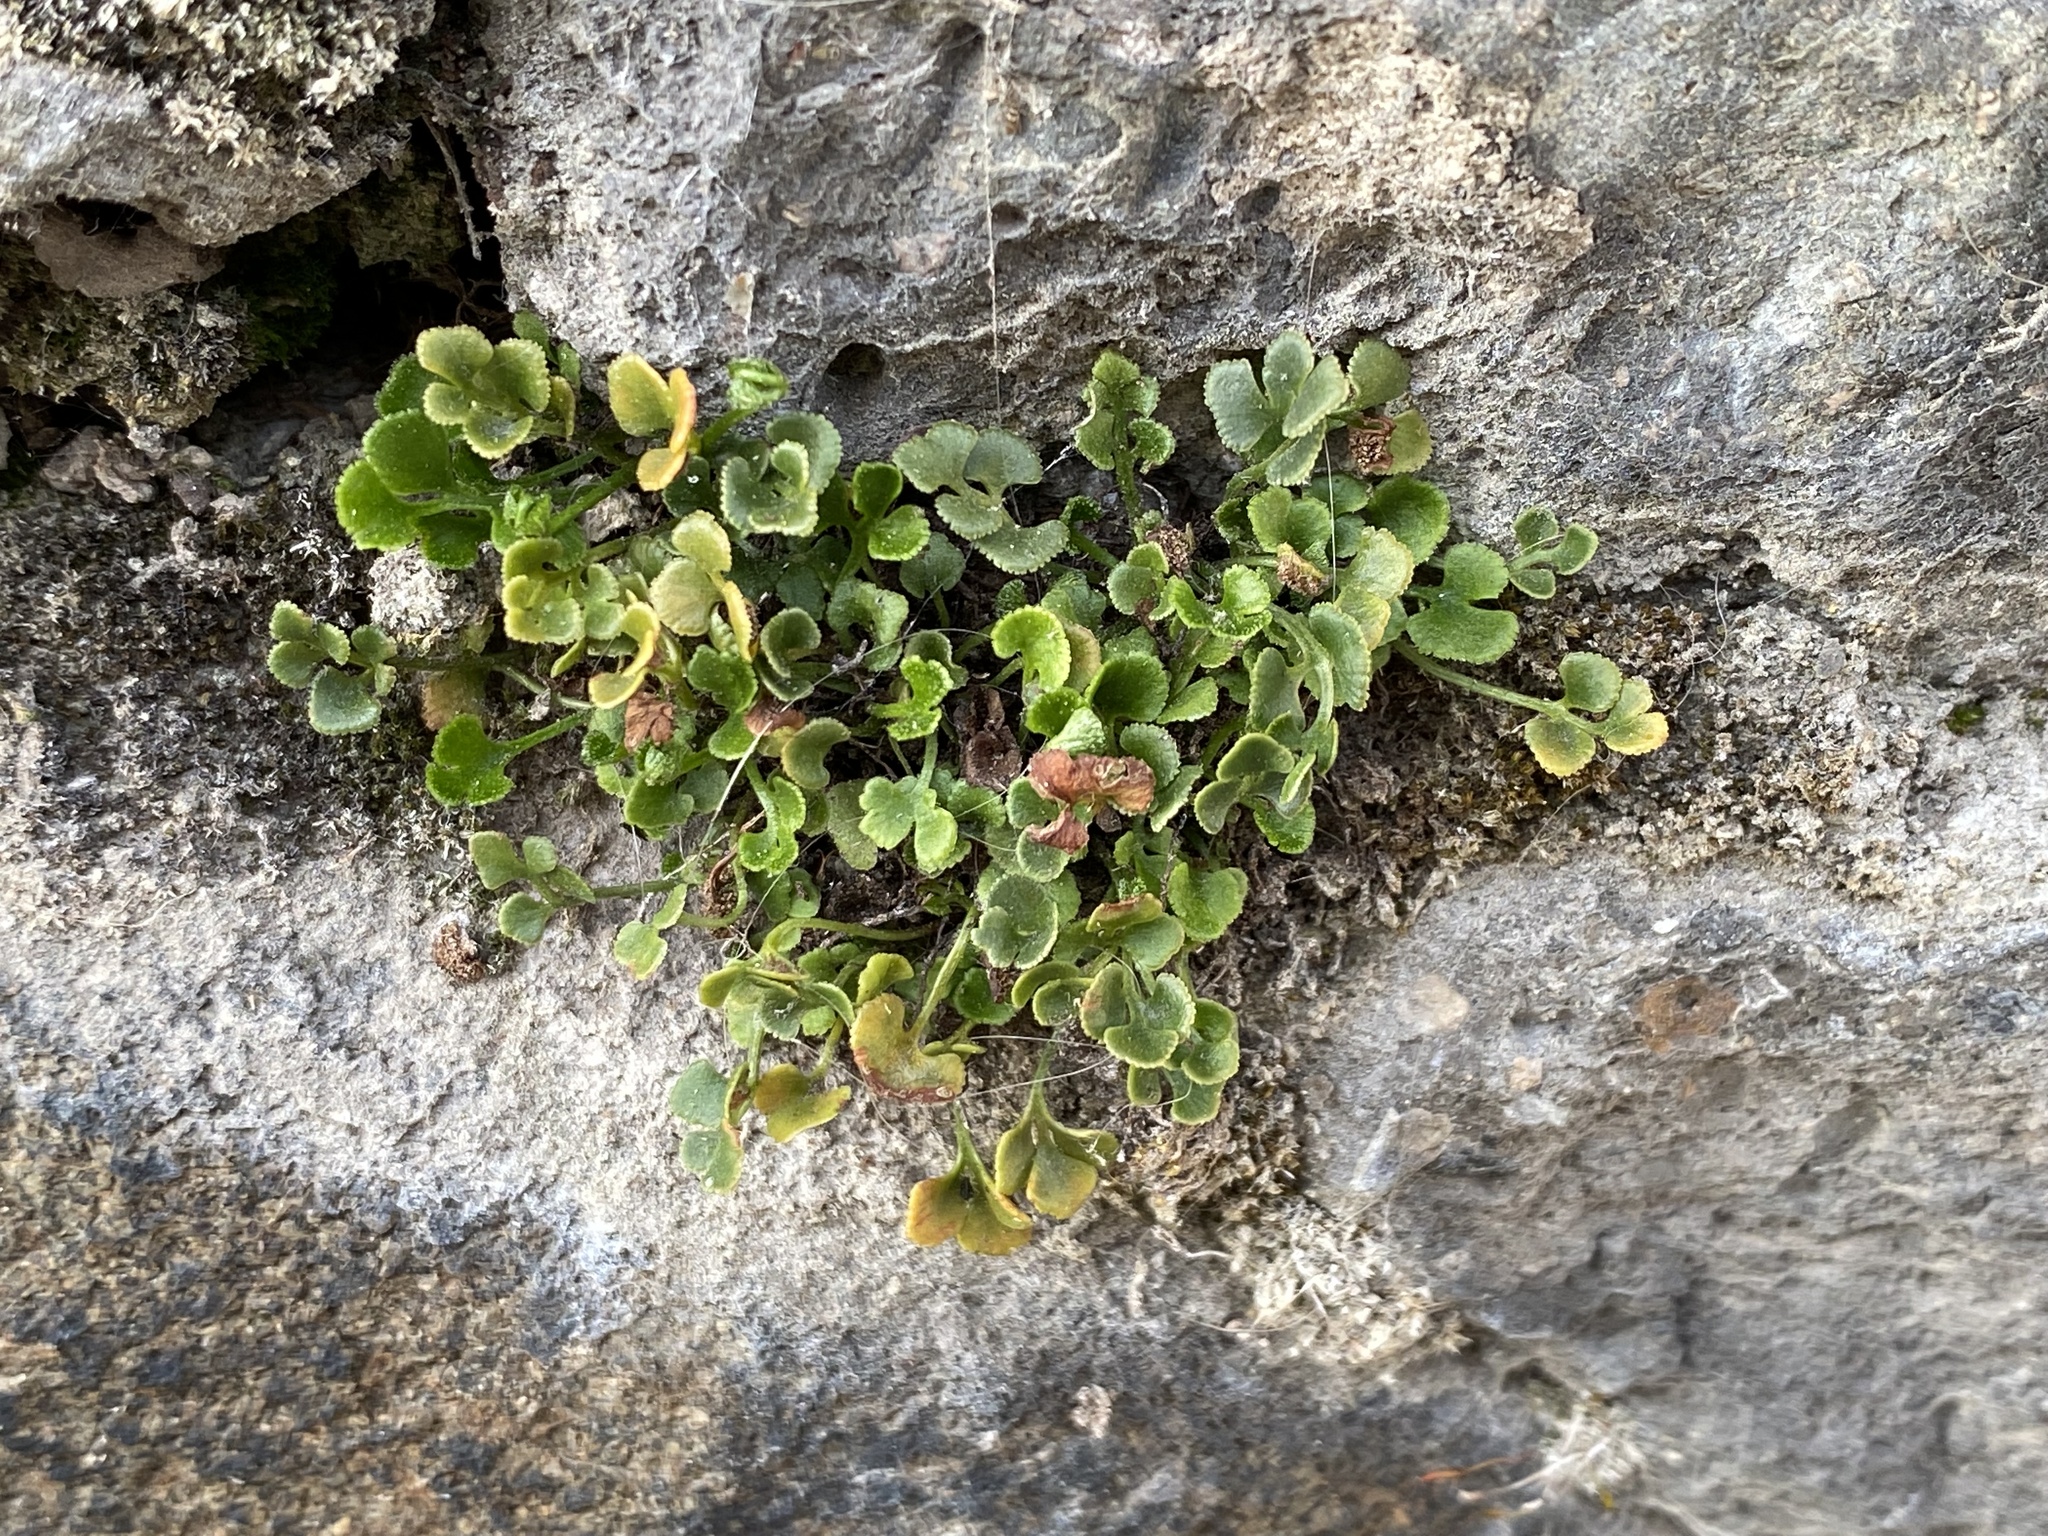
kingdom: Plantae
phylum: Tracheophyta
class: Polypodiopsida
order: Polypodiales
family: Aspleniaceae
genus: Asplenium
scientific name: Asplenium ruta-muraria
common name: Wall-rue
